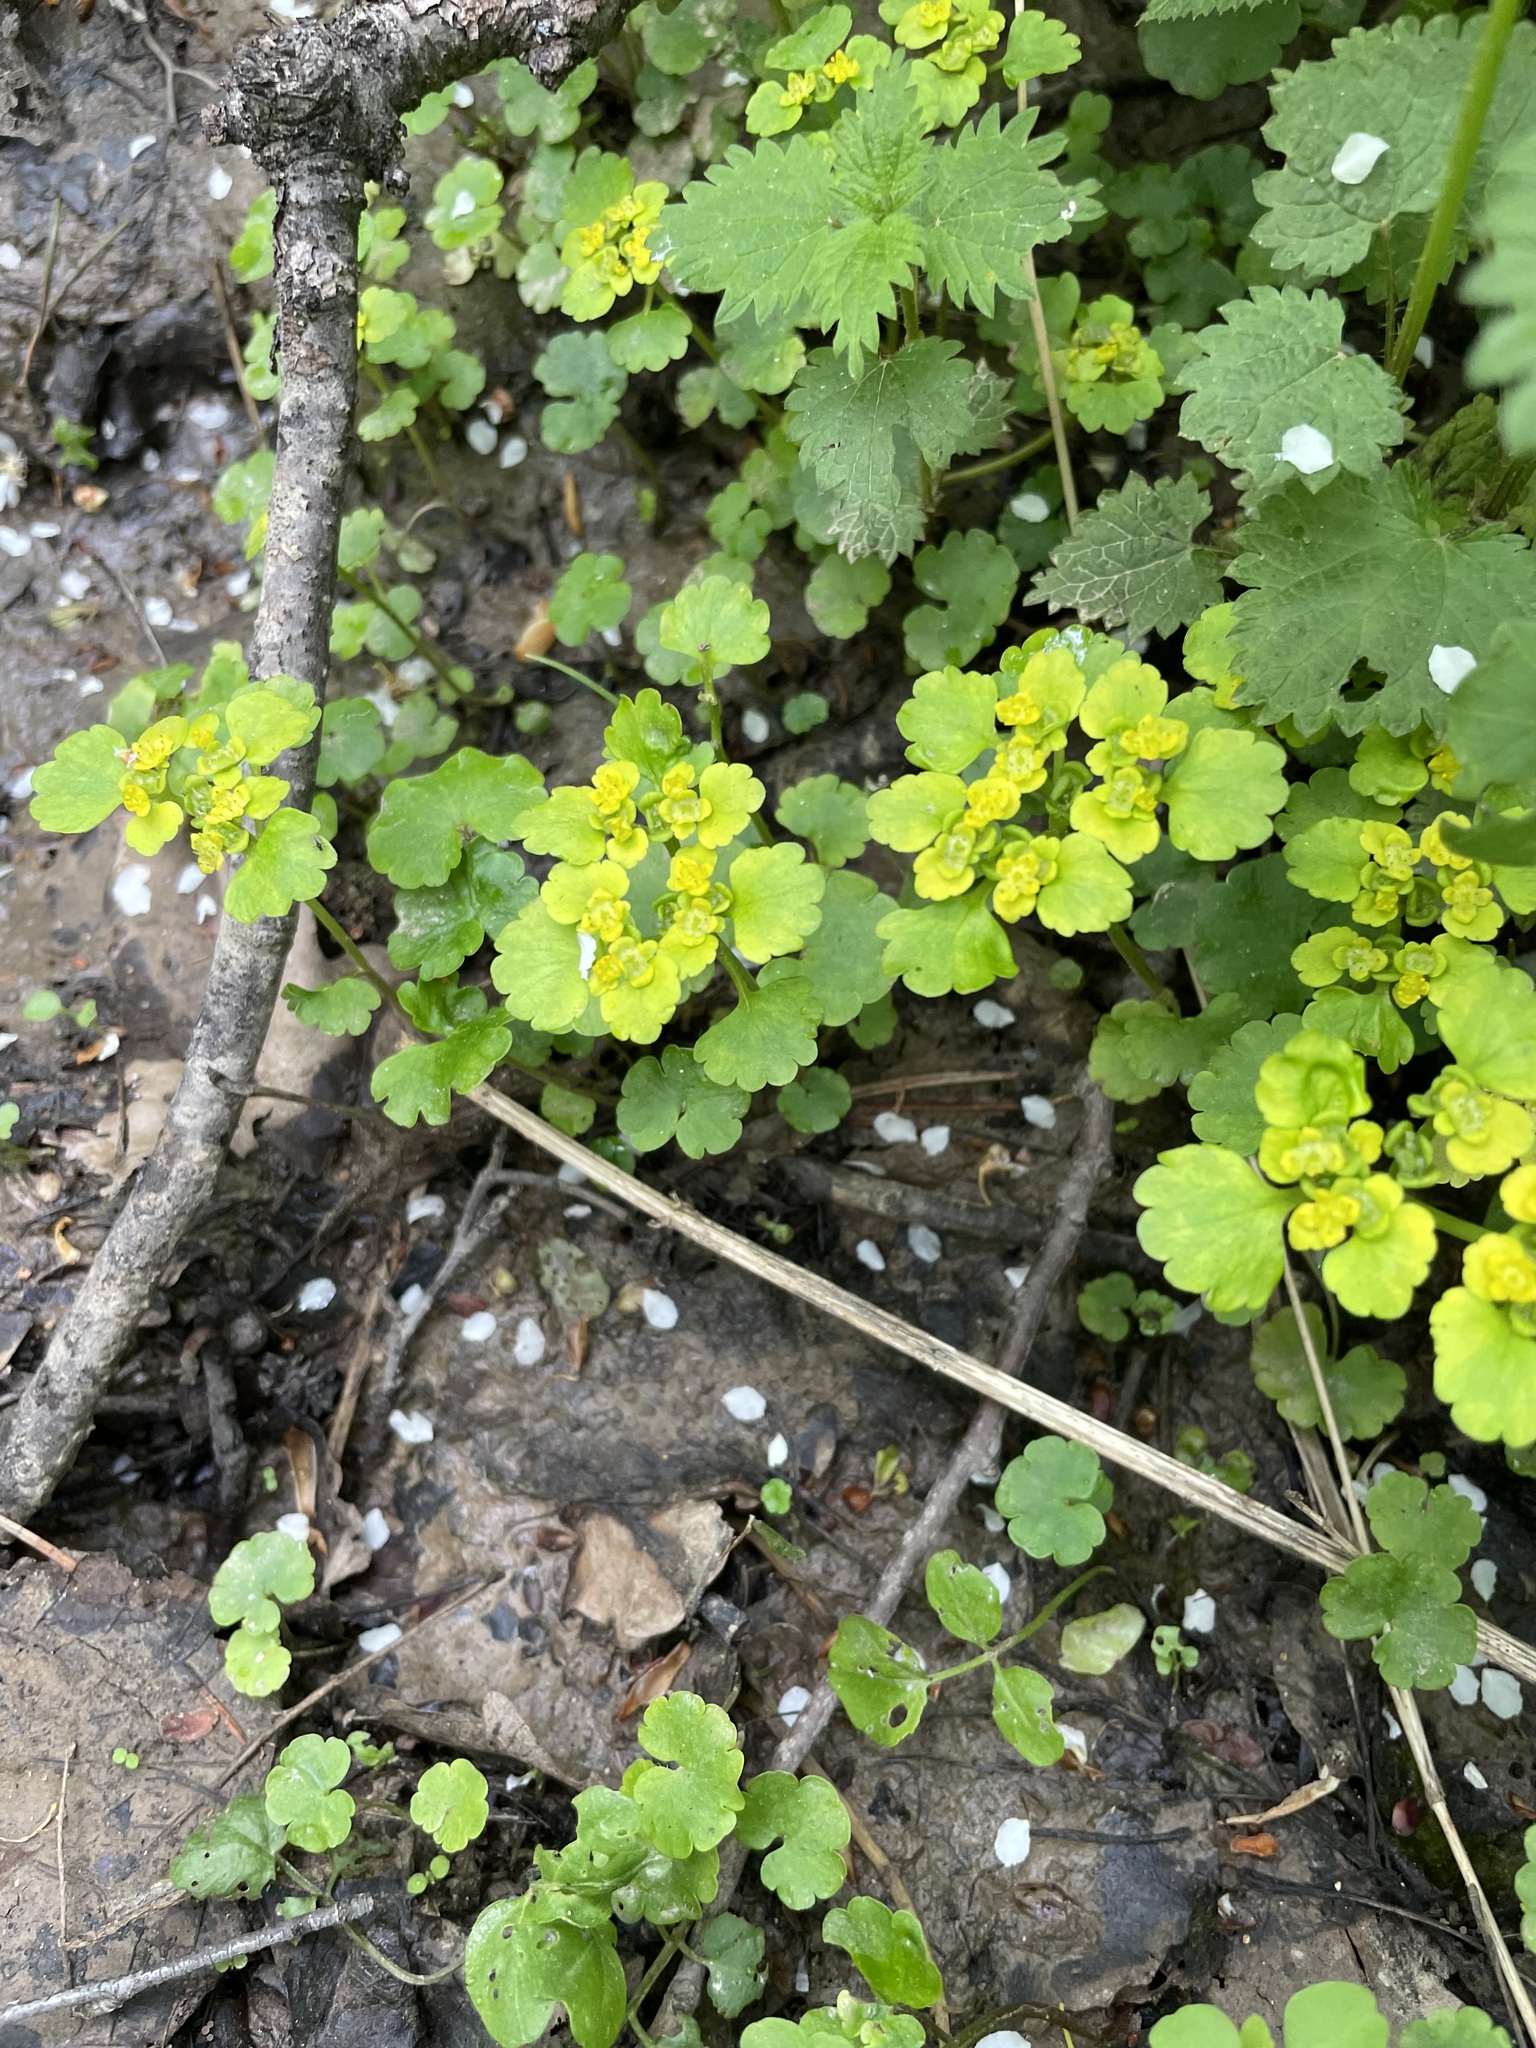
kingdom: Plantae
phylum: Tracheophyta
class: Magnoliopsida
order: Saxifragales
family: Saxifragaceae
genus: Chrysosplenium
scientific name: Chrysosplenium alternifolium
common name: Alternate-leaved golden-saxifrage
